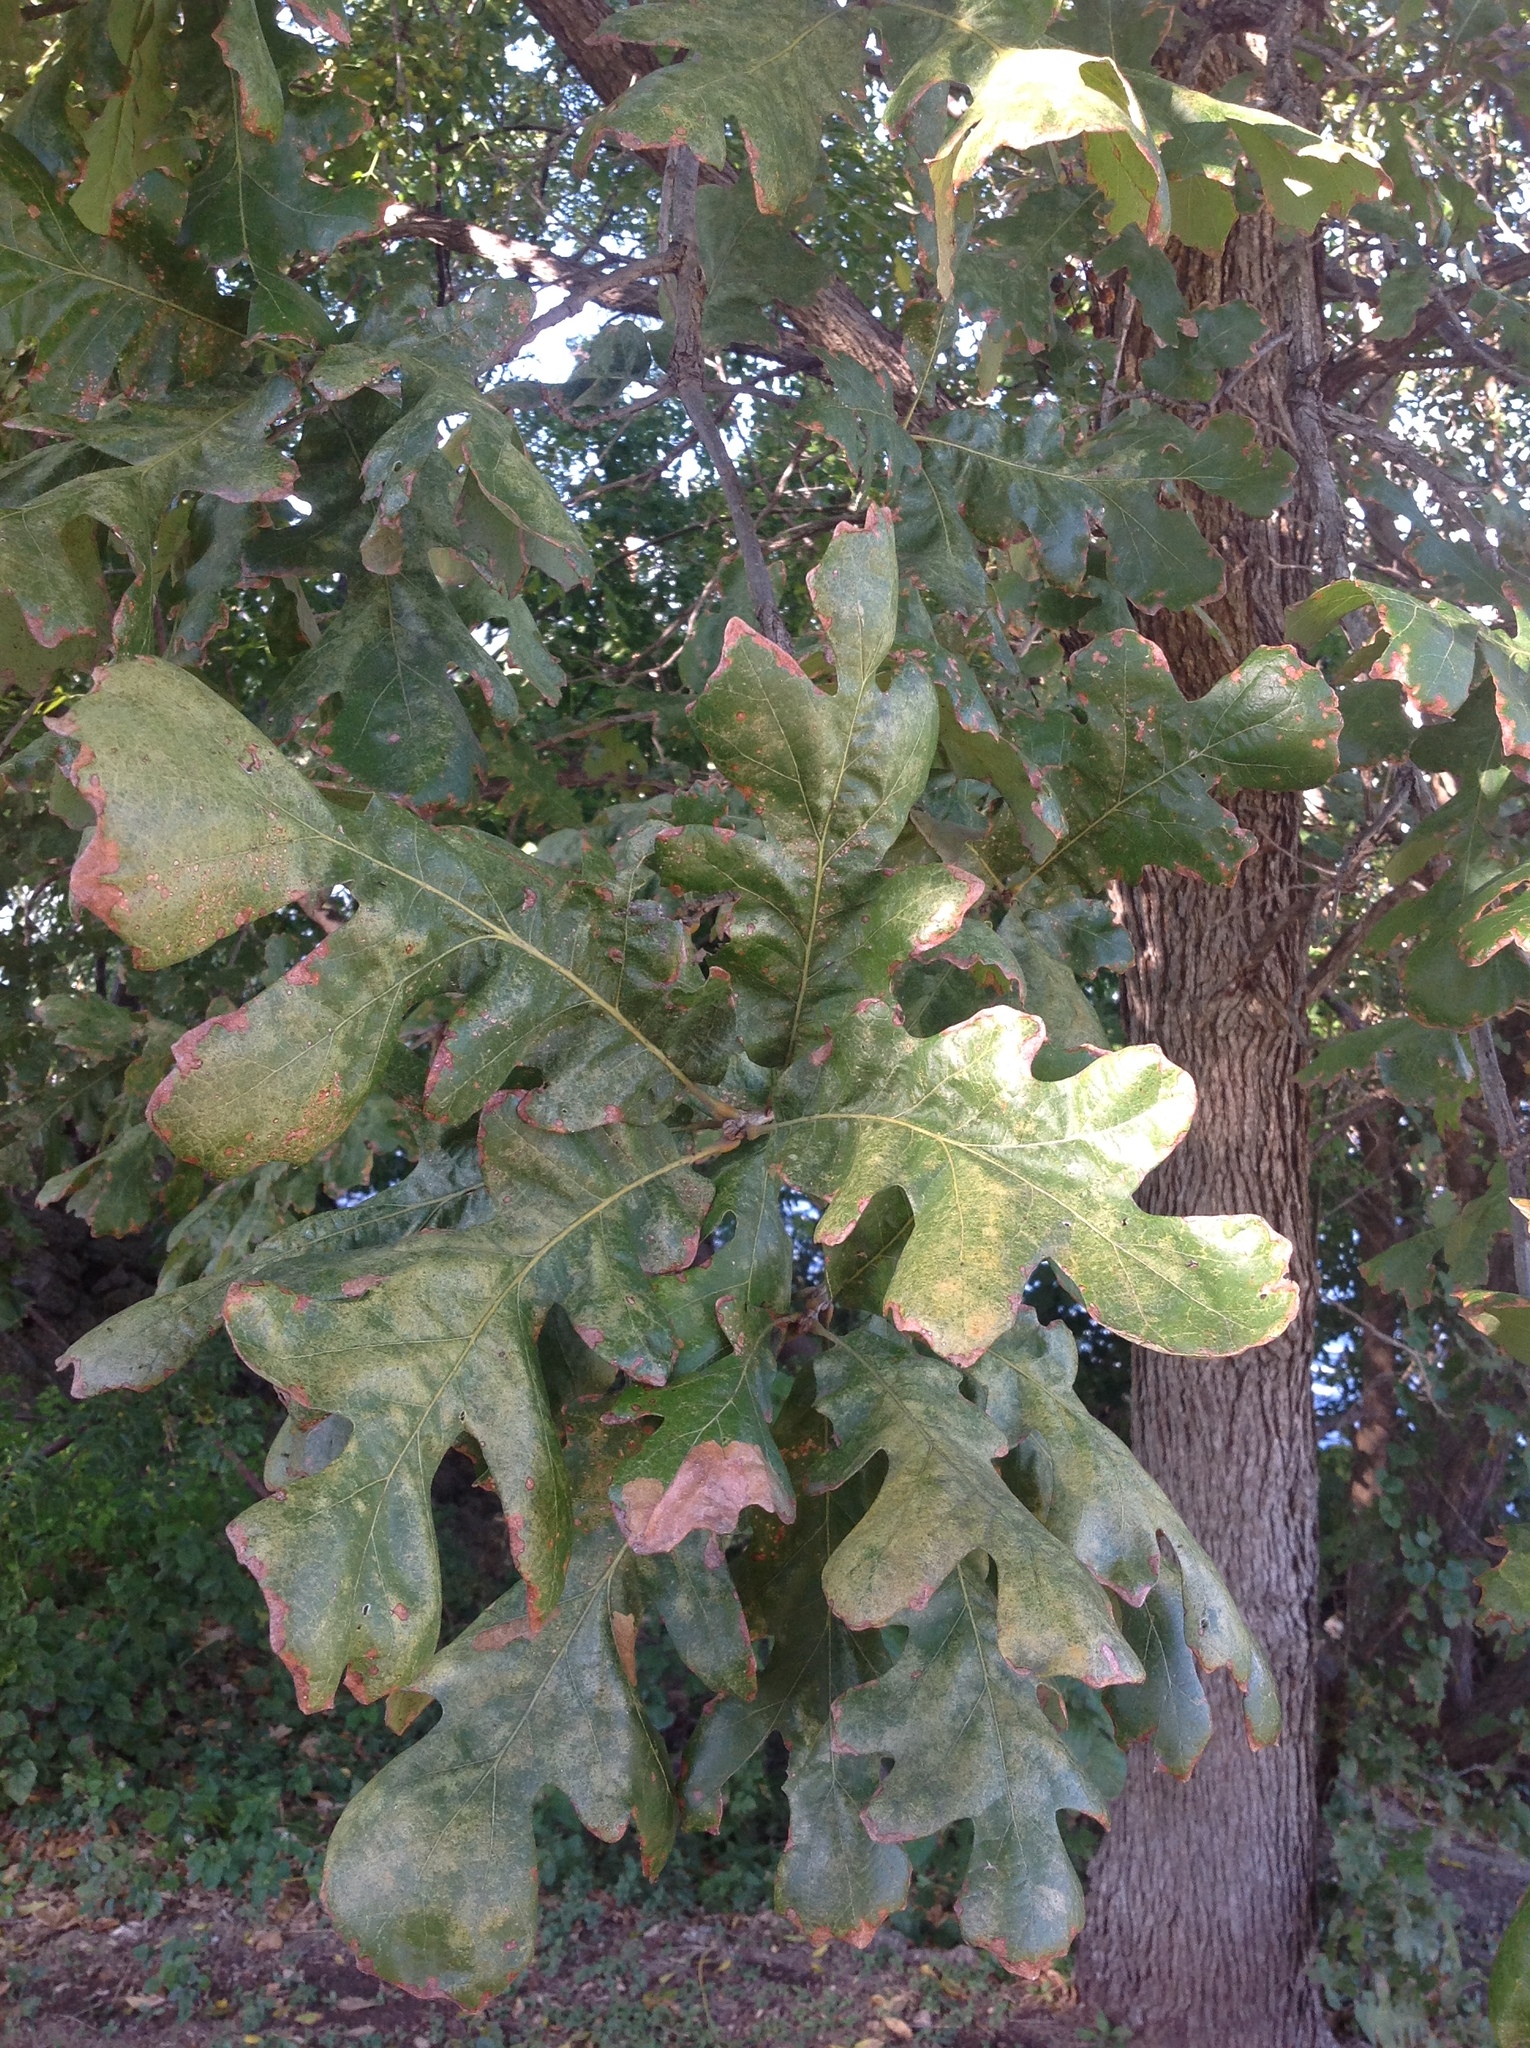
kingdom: Plantae
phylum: Tracheophyta
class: Magnoliopsida
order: Fagales
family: Fagaceae
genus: Quercus
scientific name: Quercus macrocarpa
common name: Bur oak
